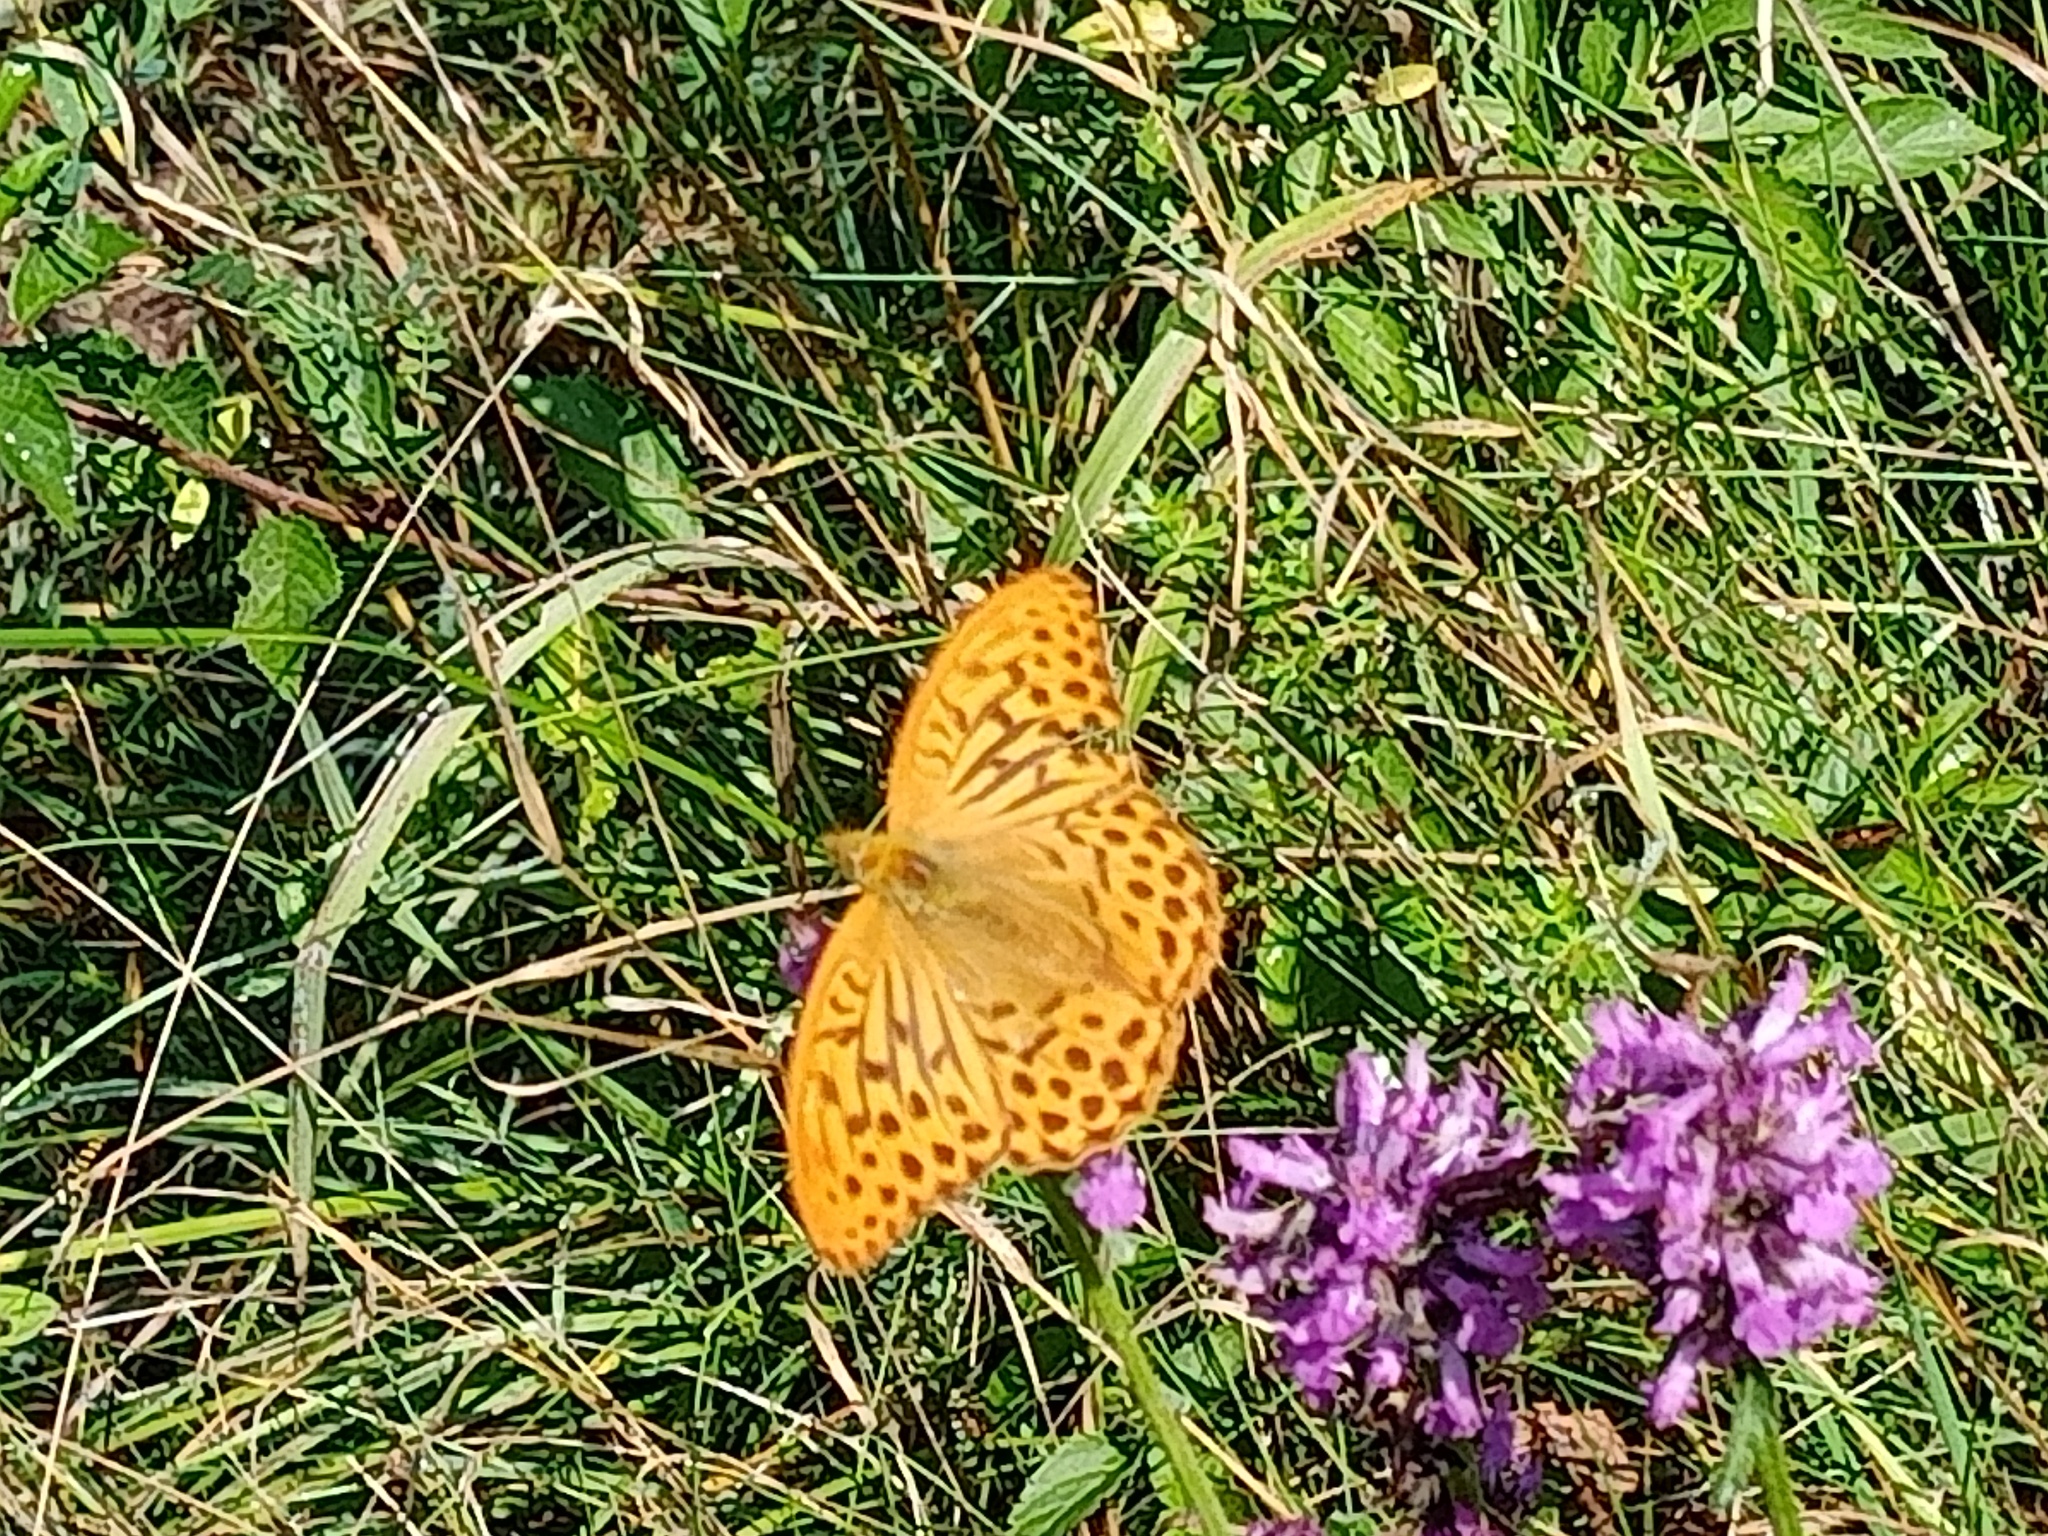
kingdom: Animalia
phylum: Arthropoda
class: Insecta
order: Lepidoptera
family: Nymphalidae
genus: Argynnis
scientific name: Argynnis paphia
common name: Silver-washed fritillary
